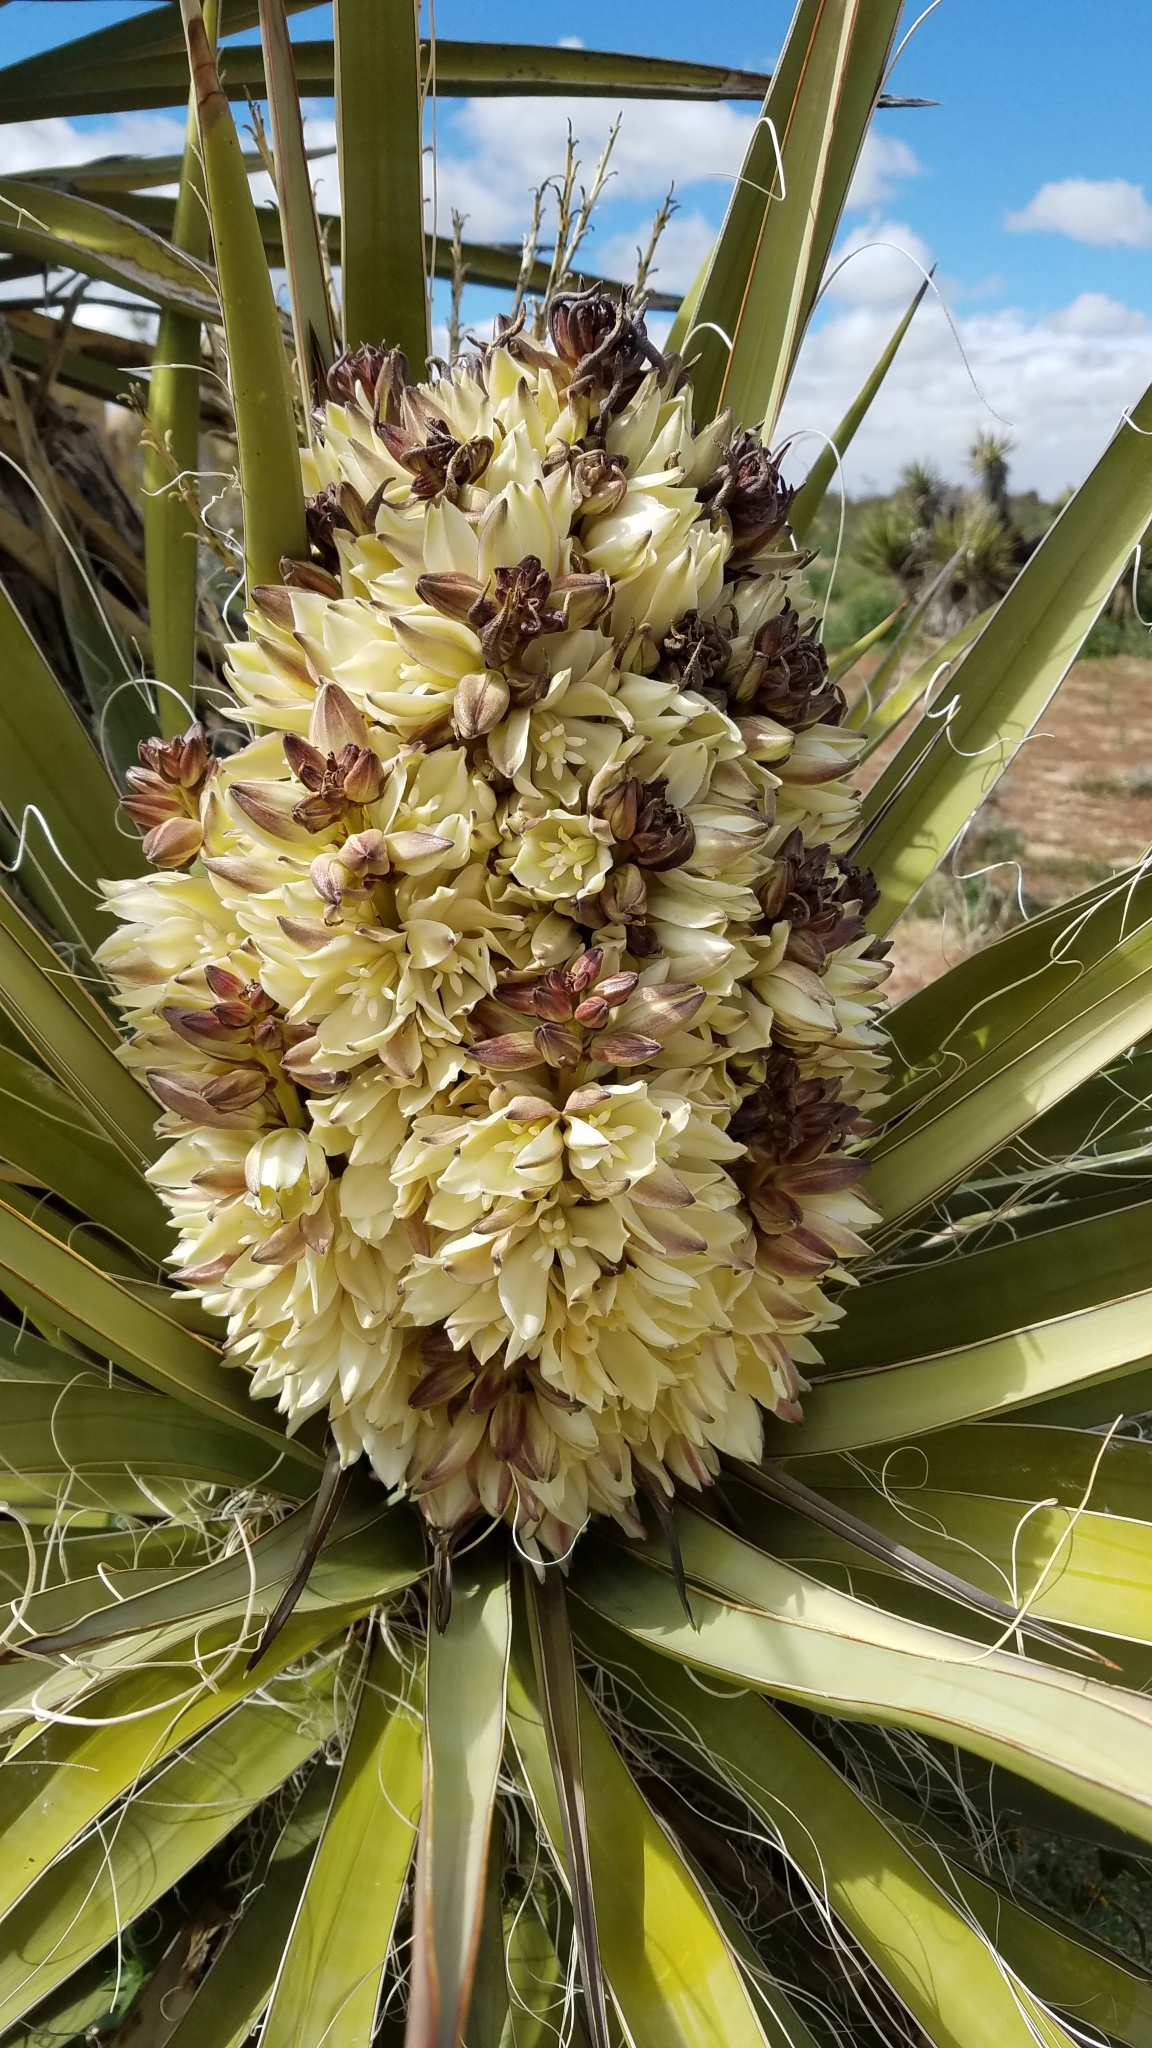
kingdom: Plantae
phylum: Tracheophyta
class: Liliopsida
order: Asparagales
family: Asparagaceae
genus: Yucca
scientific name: Yucca schidigera
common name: Mojave yucca
